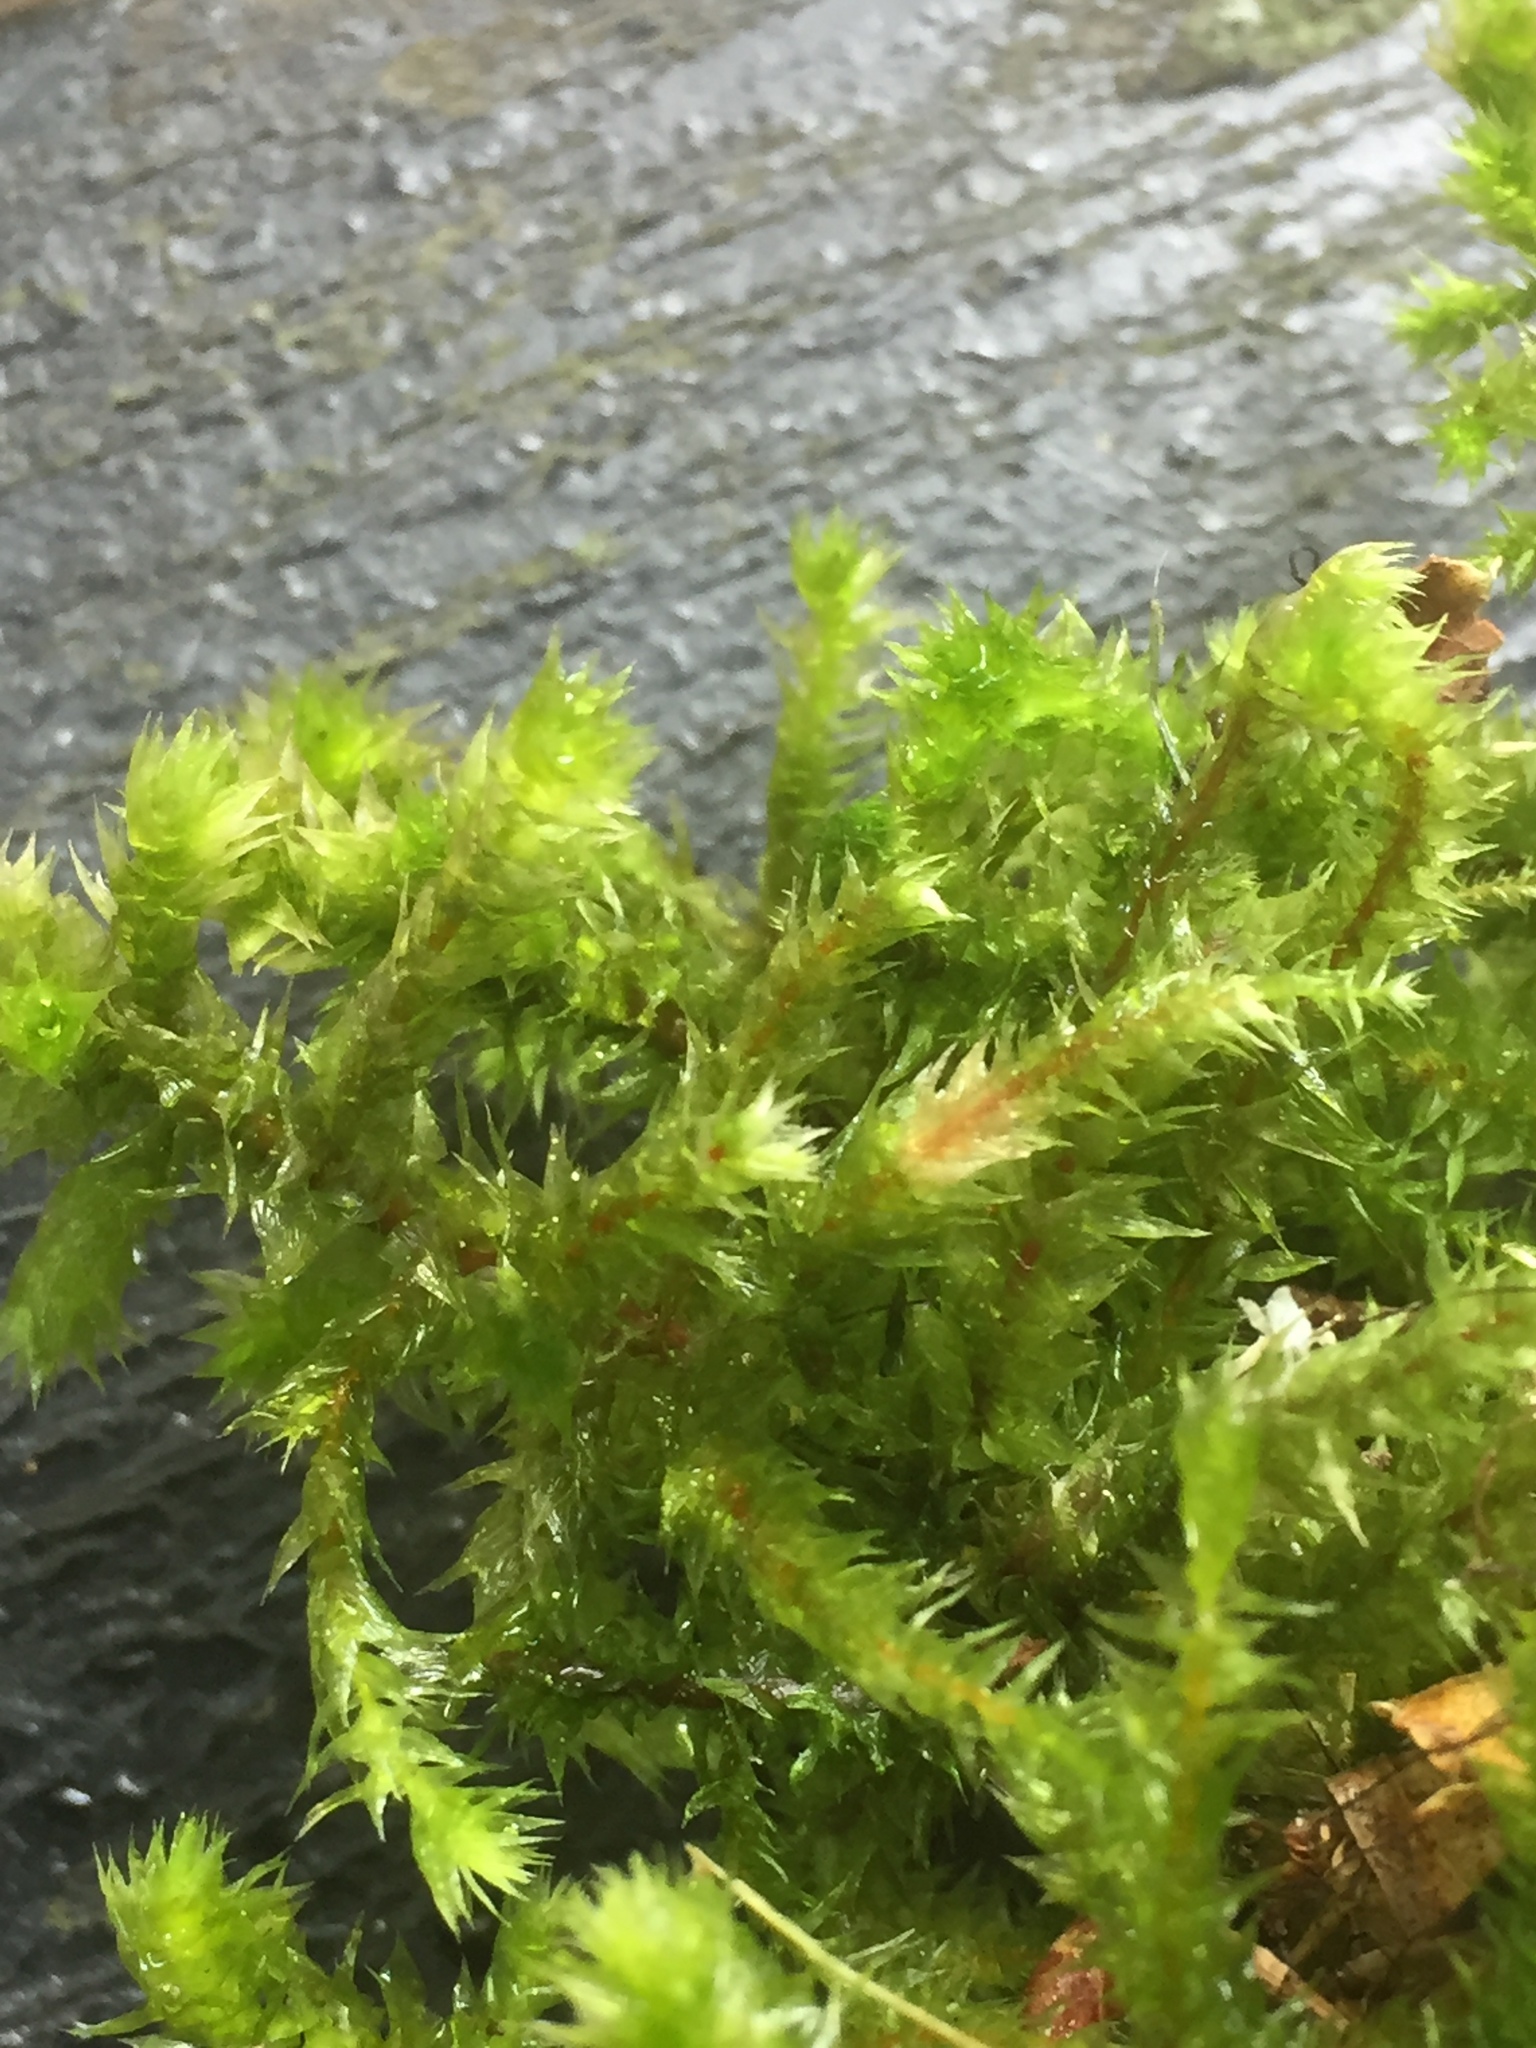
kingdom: Plantae
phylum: Bryophyta
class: Bryopsida
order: Hypnales
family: Hylocomiaceae
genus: Hylocomiadelphus
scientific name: Hylocomiadelphus triquetrus
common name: Rough goose neck moss
